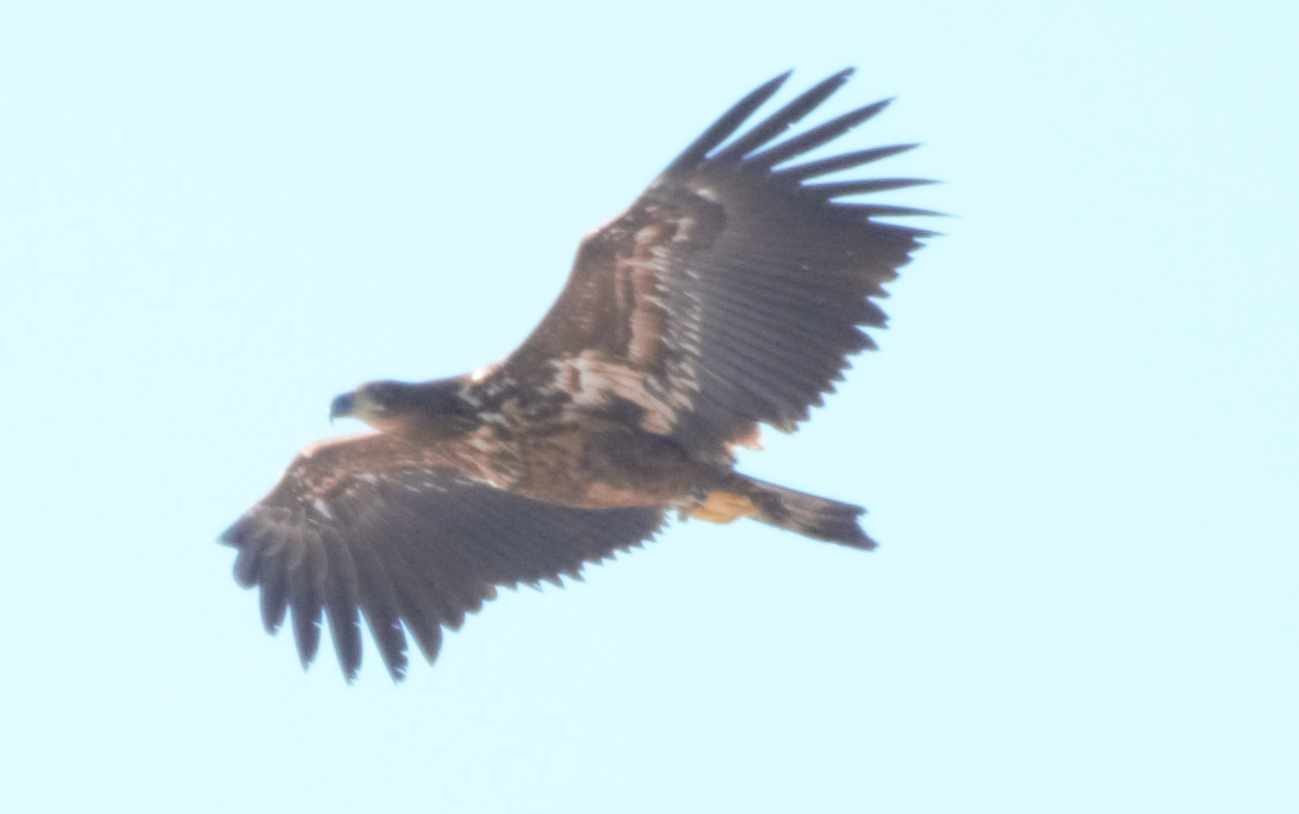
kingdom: Animalia
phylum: Chordata
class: Aves
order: Accipitriformes
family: Accipitridae
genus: Haliaeetus
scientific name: Haliaeetus albicilla
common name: White-tailed eagle
